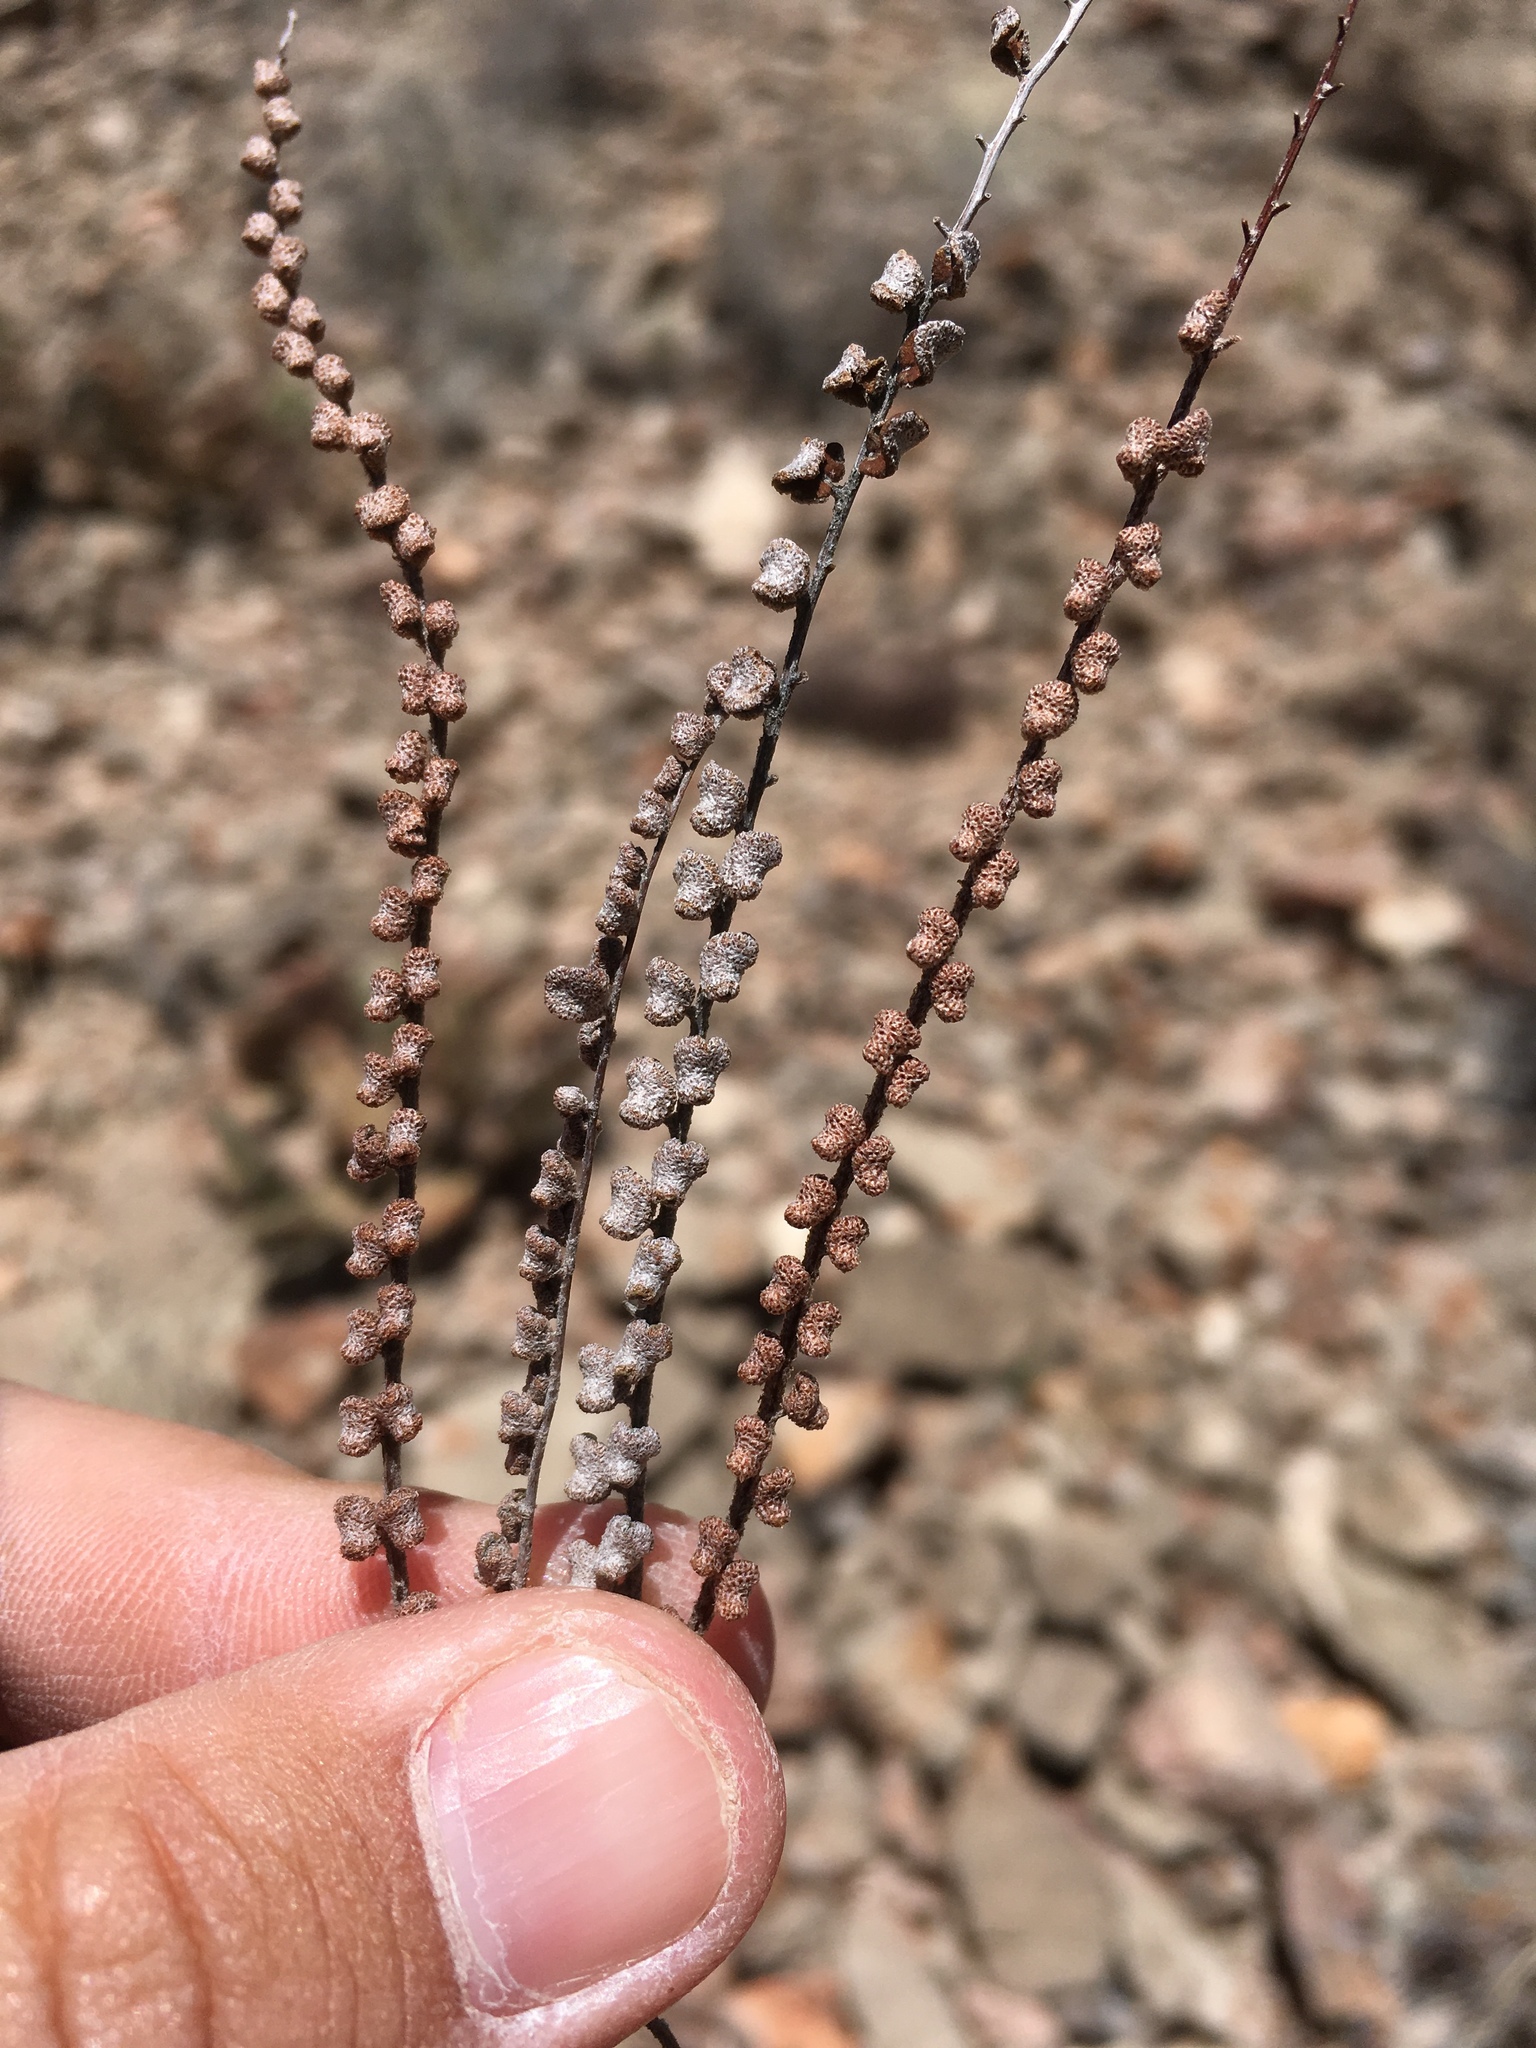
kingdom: Plantae
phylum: Tracheophyta
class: Polypodiopsida
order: Polypodiales
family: Pteridaceae
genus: Astrolepis
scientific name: Astrolepis cochisensis
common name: Scaly cloak fern
